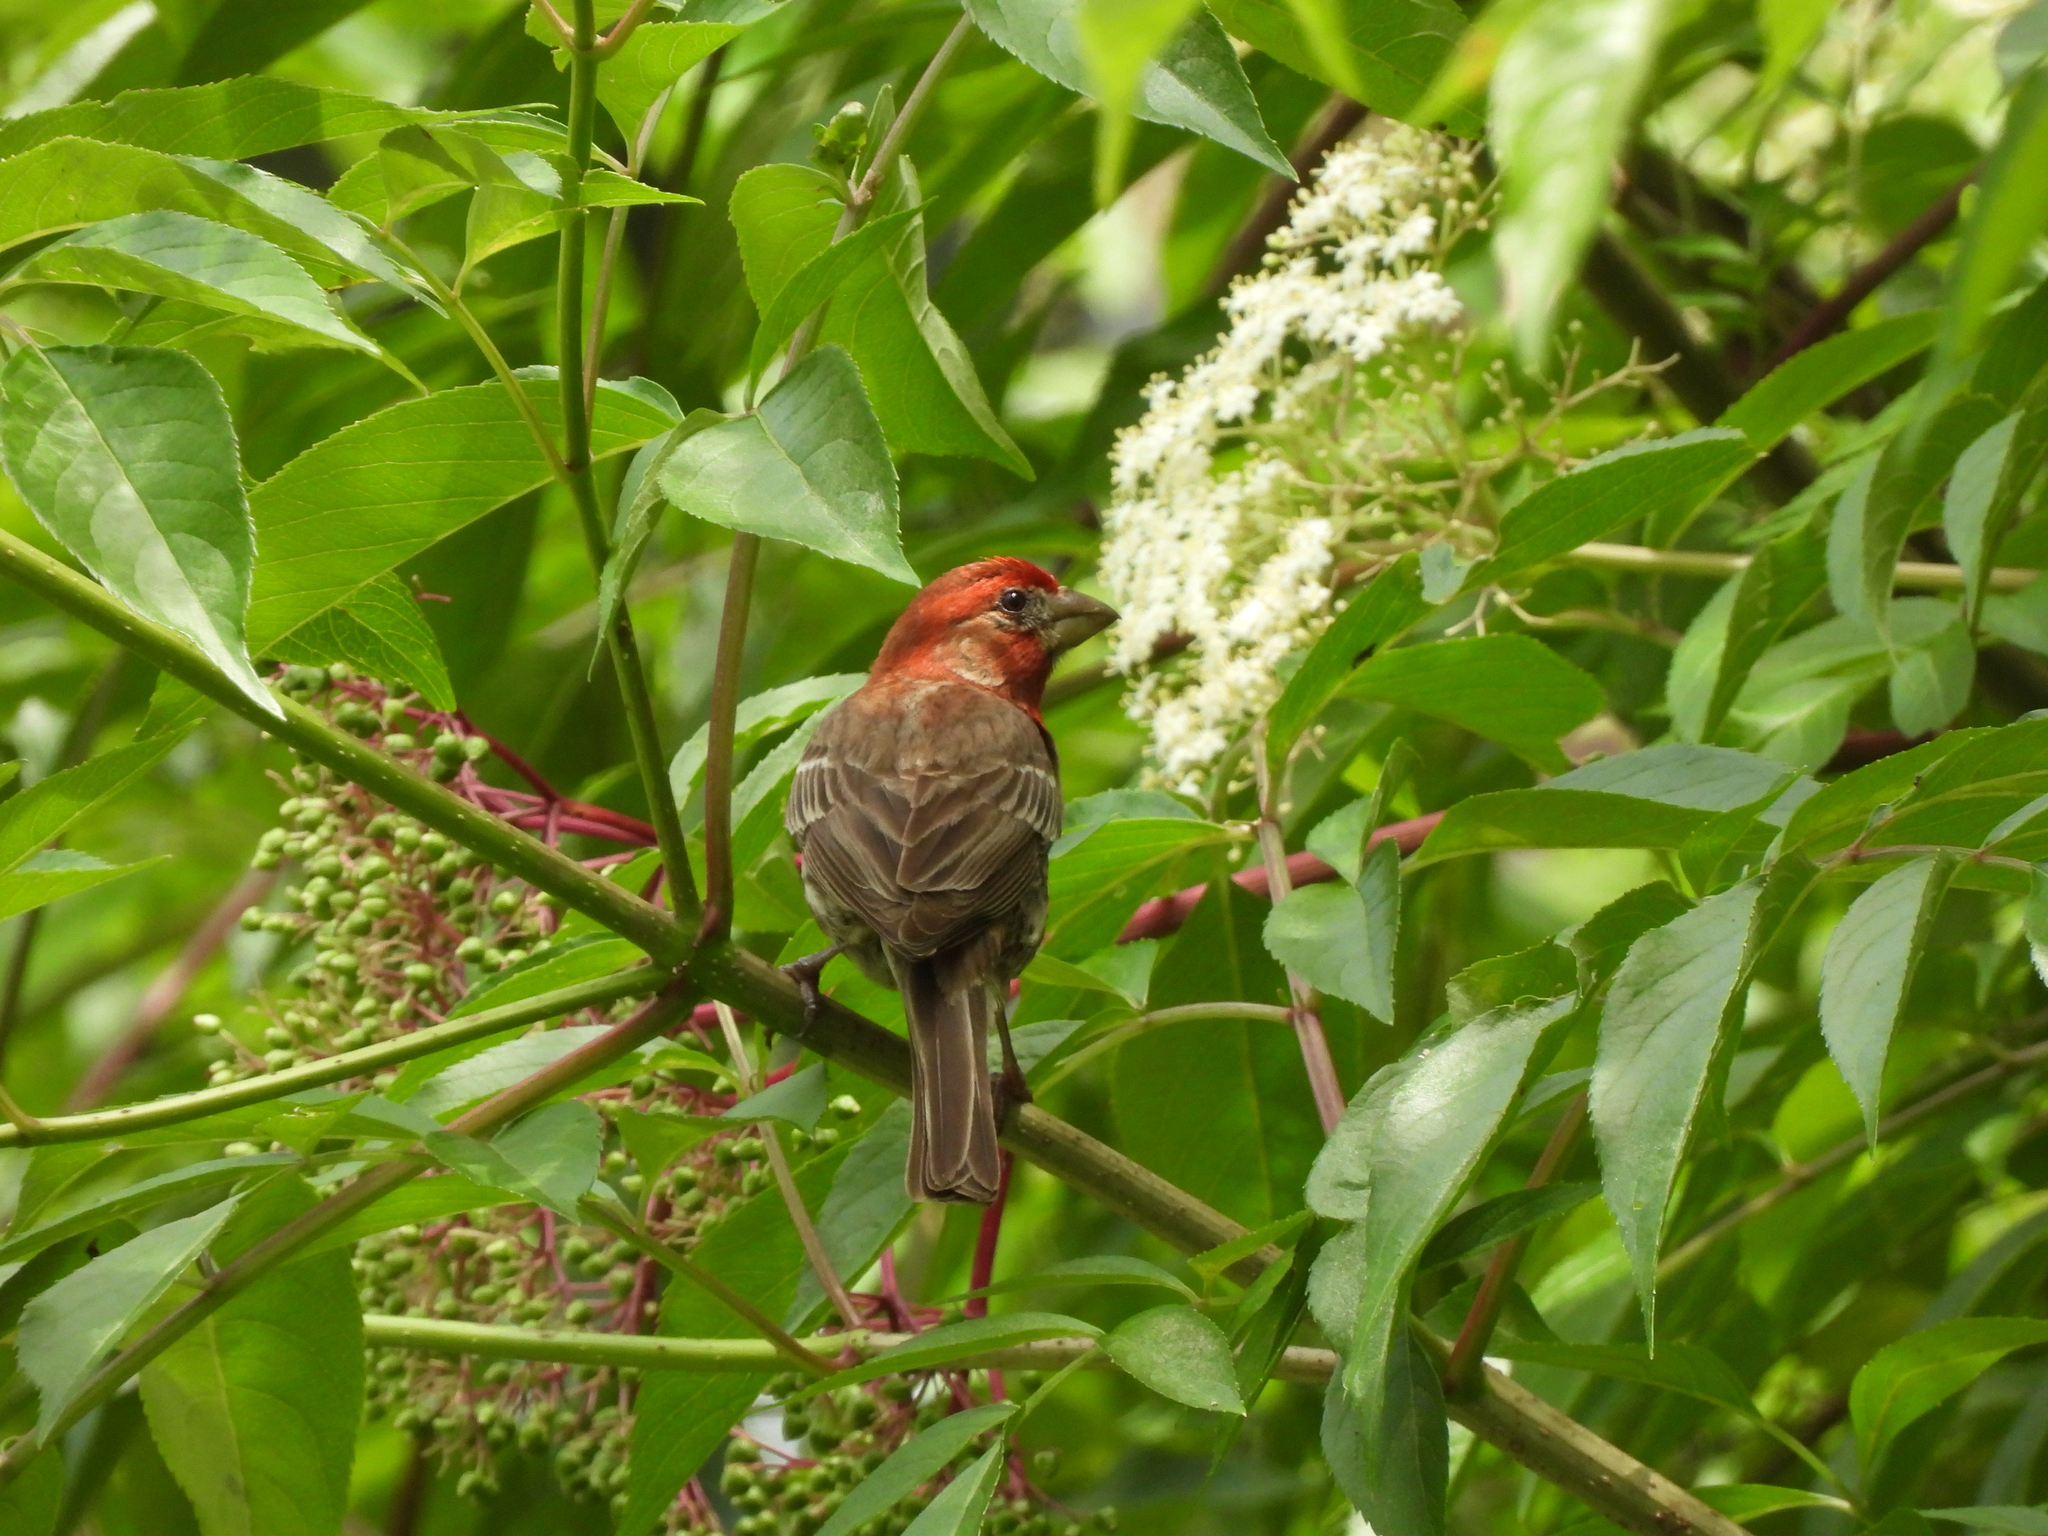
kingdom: Animalia
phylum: Chordata
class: Aves
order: Passeriformes
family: Fringillidae
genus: Haemorhous
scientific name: Haemorhous mexicanus
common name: House finch
